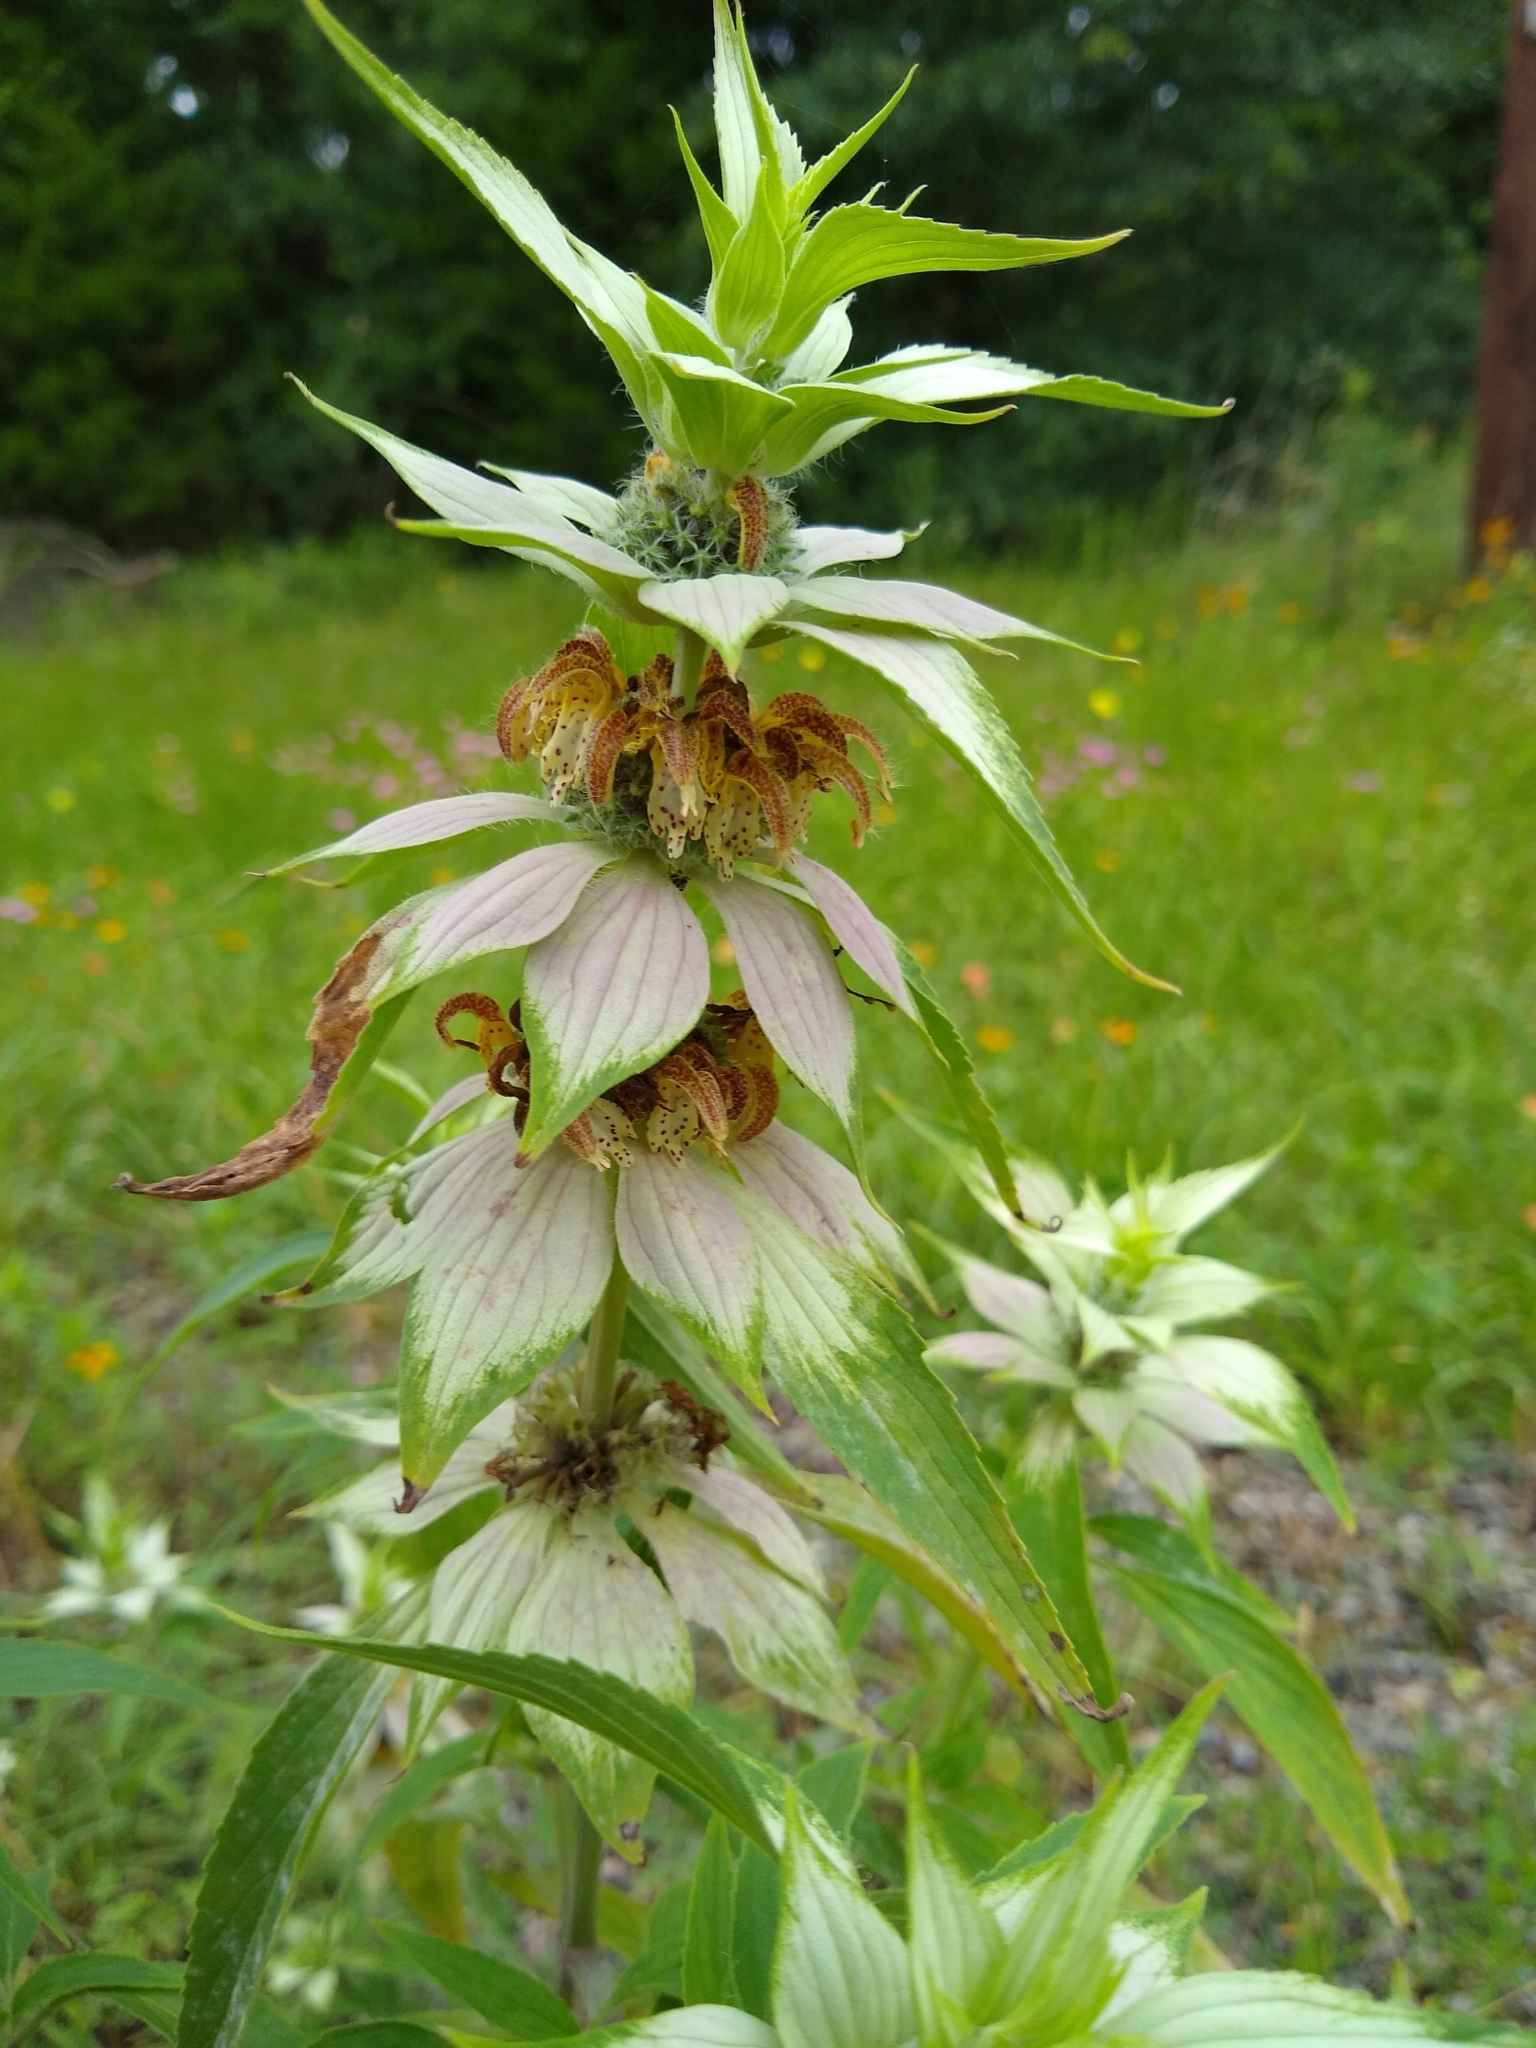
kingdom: Plantae
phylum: Tracheophyta
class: Magnoliopsida
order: Lamiales
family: Lamiaceae
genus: Monarda
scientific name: Monarda punctata
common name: Dotted monarda
